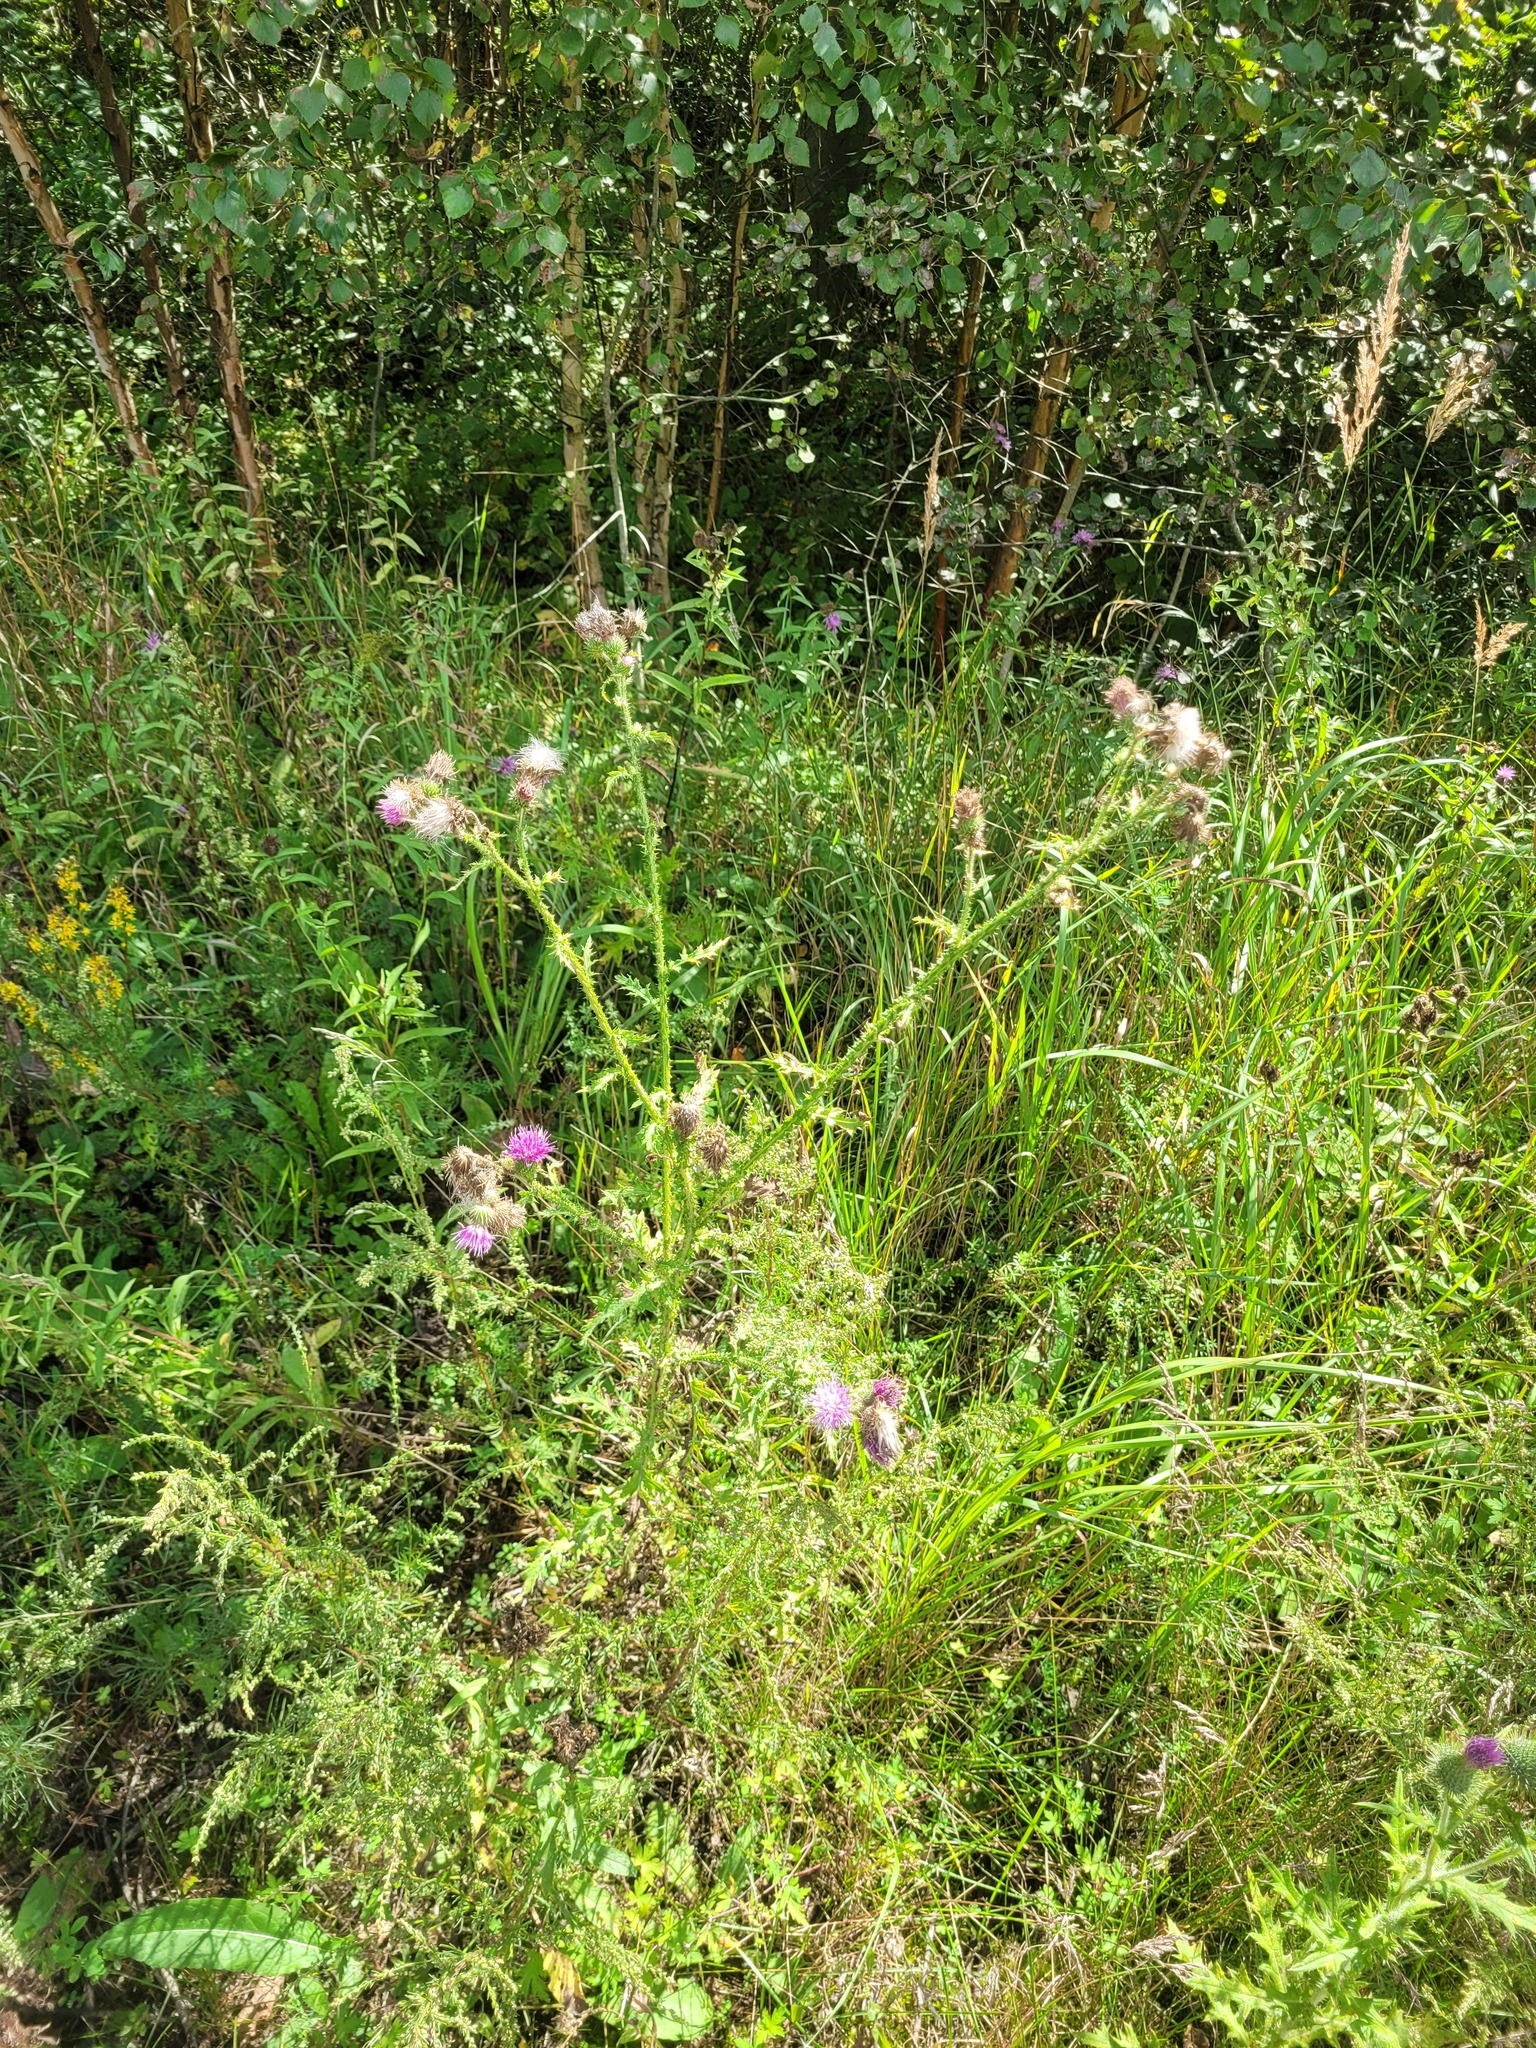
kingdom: Plantae
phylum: Tracheophyta
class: Magnoliopsida
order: Asterales
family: Asteraceae
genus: Carduus
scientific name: Carduus crispus
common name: Welted thistle
